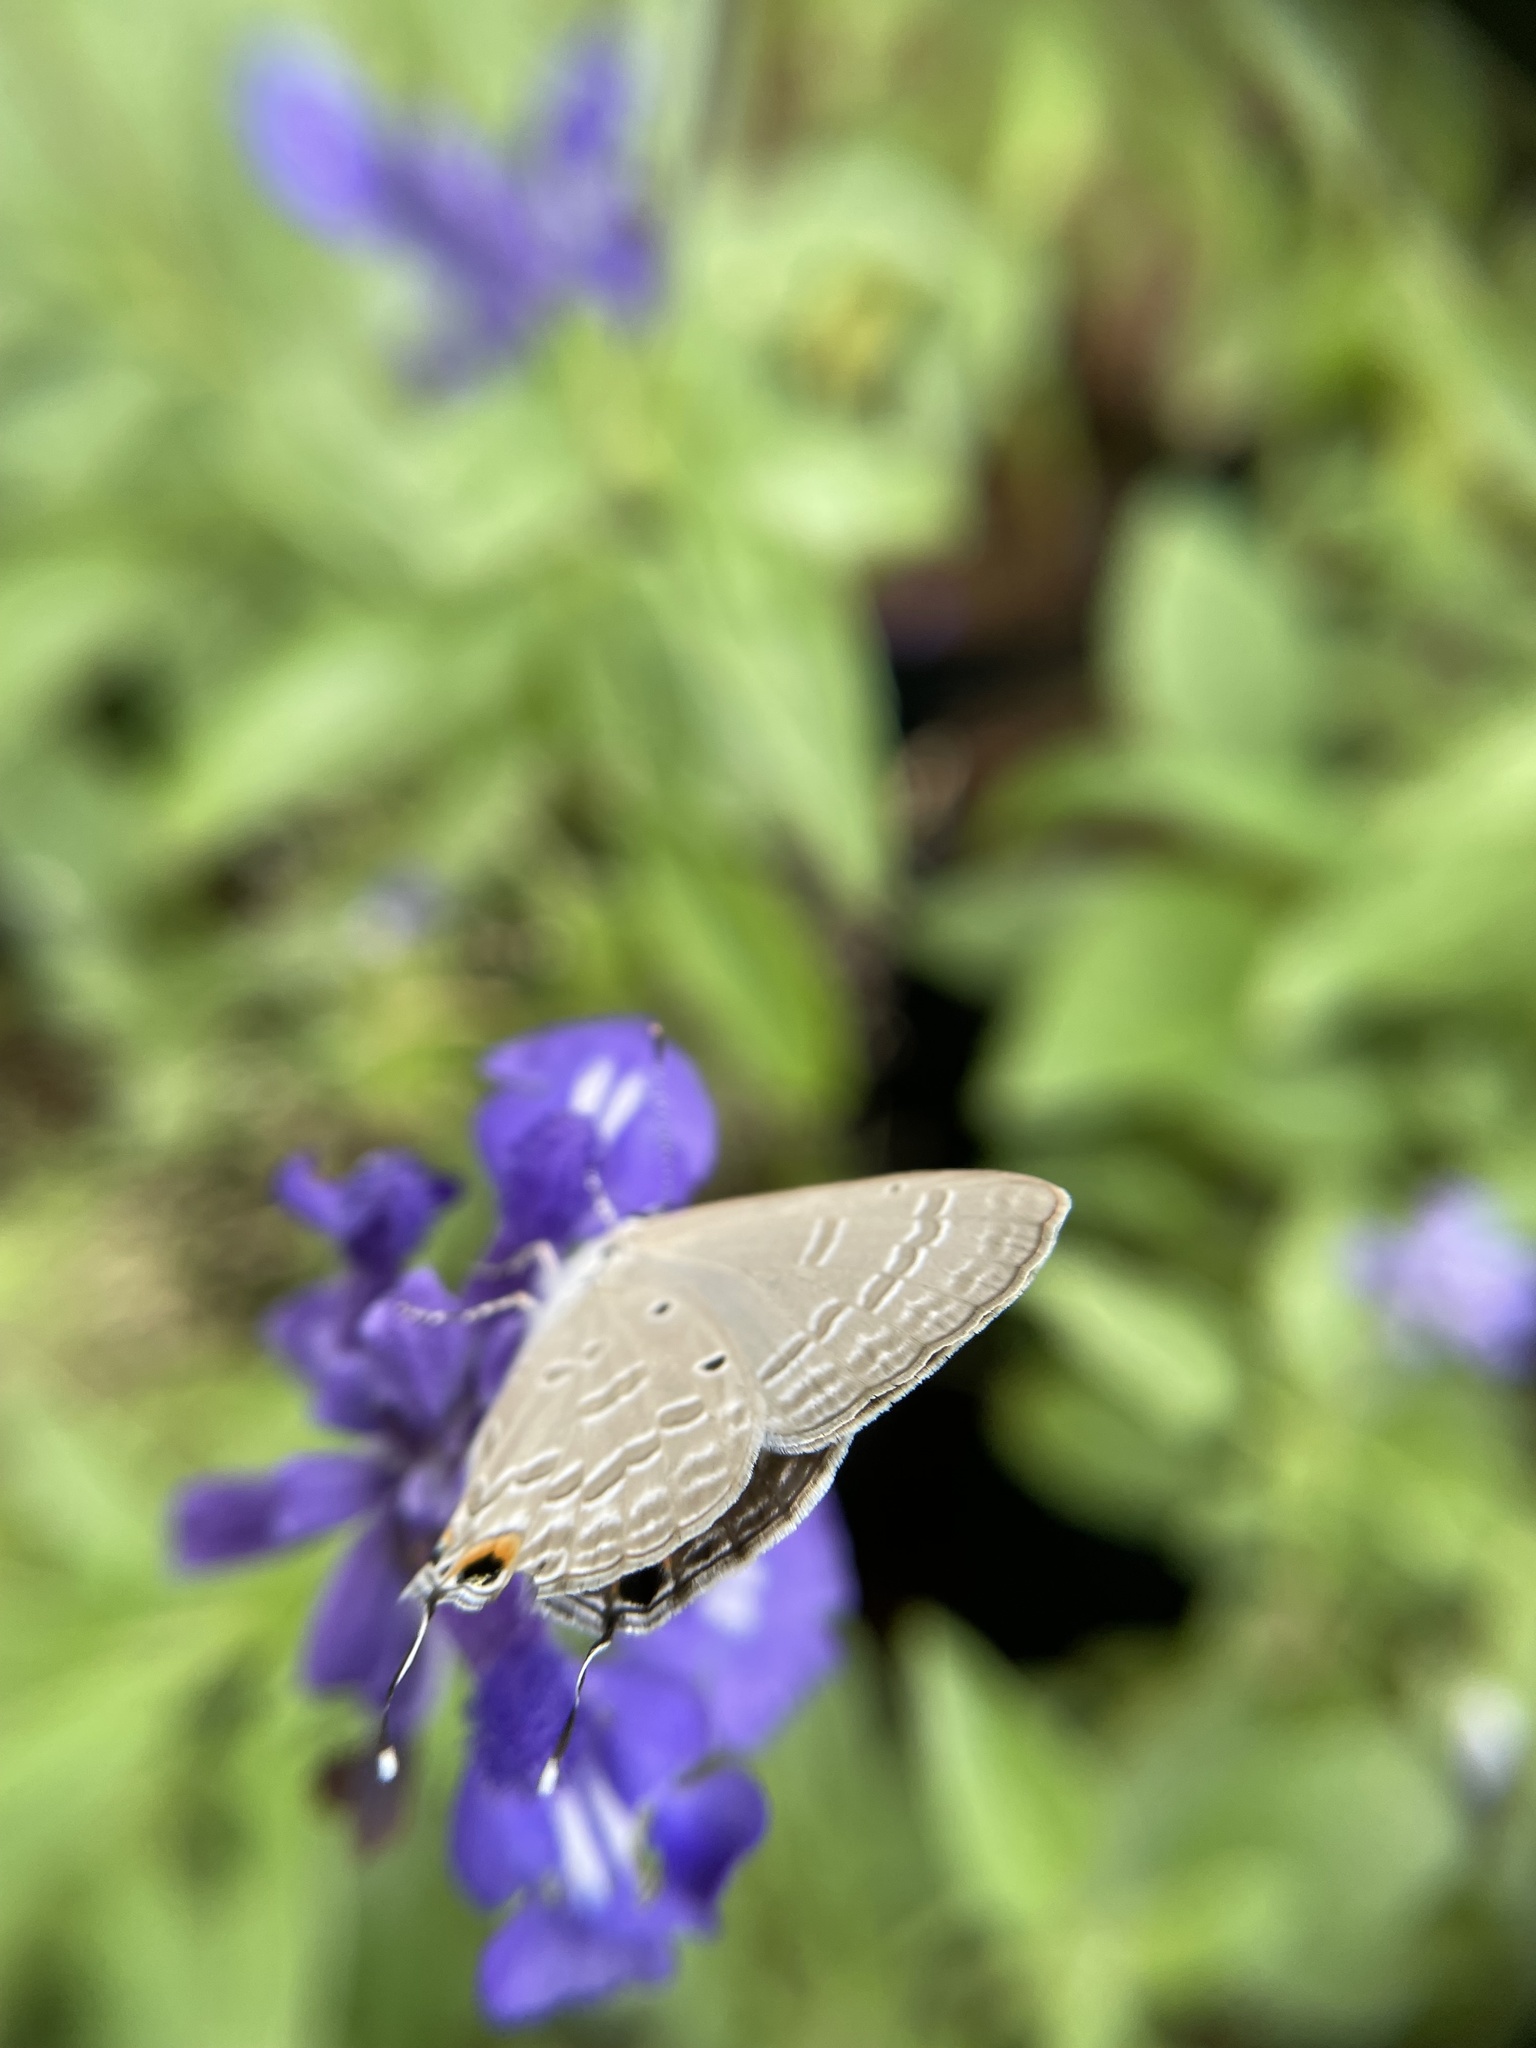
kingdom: Animalia
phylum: Arthropoda
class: Insecta
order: Lepidoptera
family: Lycaenidae
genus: Catochrysops
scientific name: Catochrysops strabo
